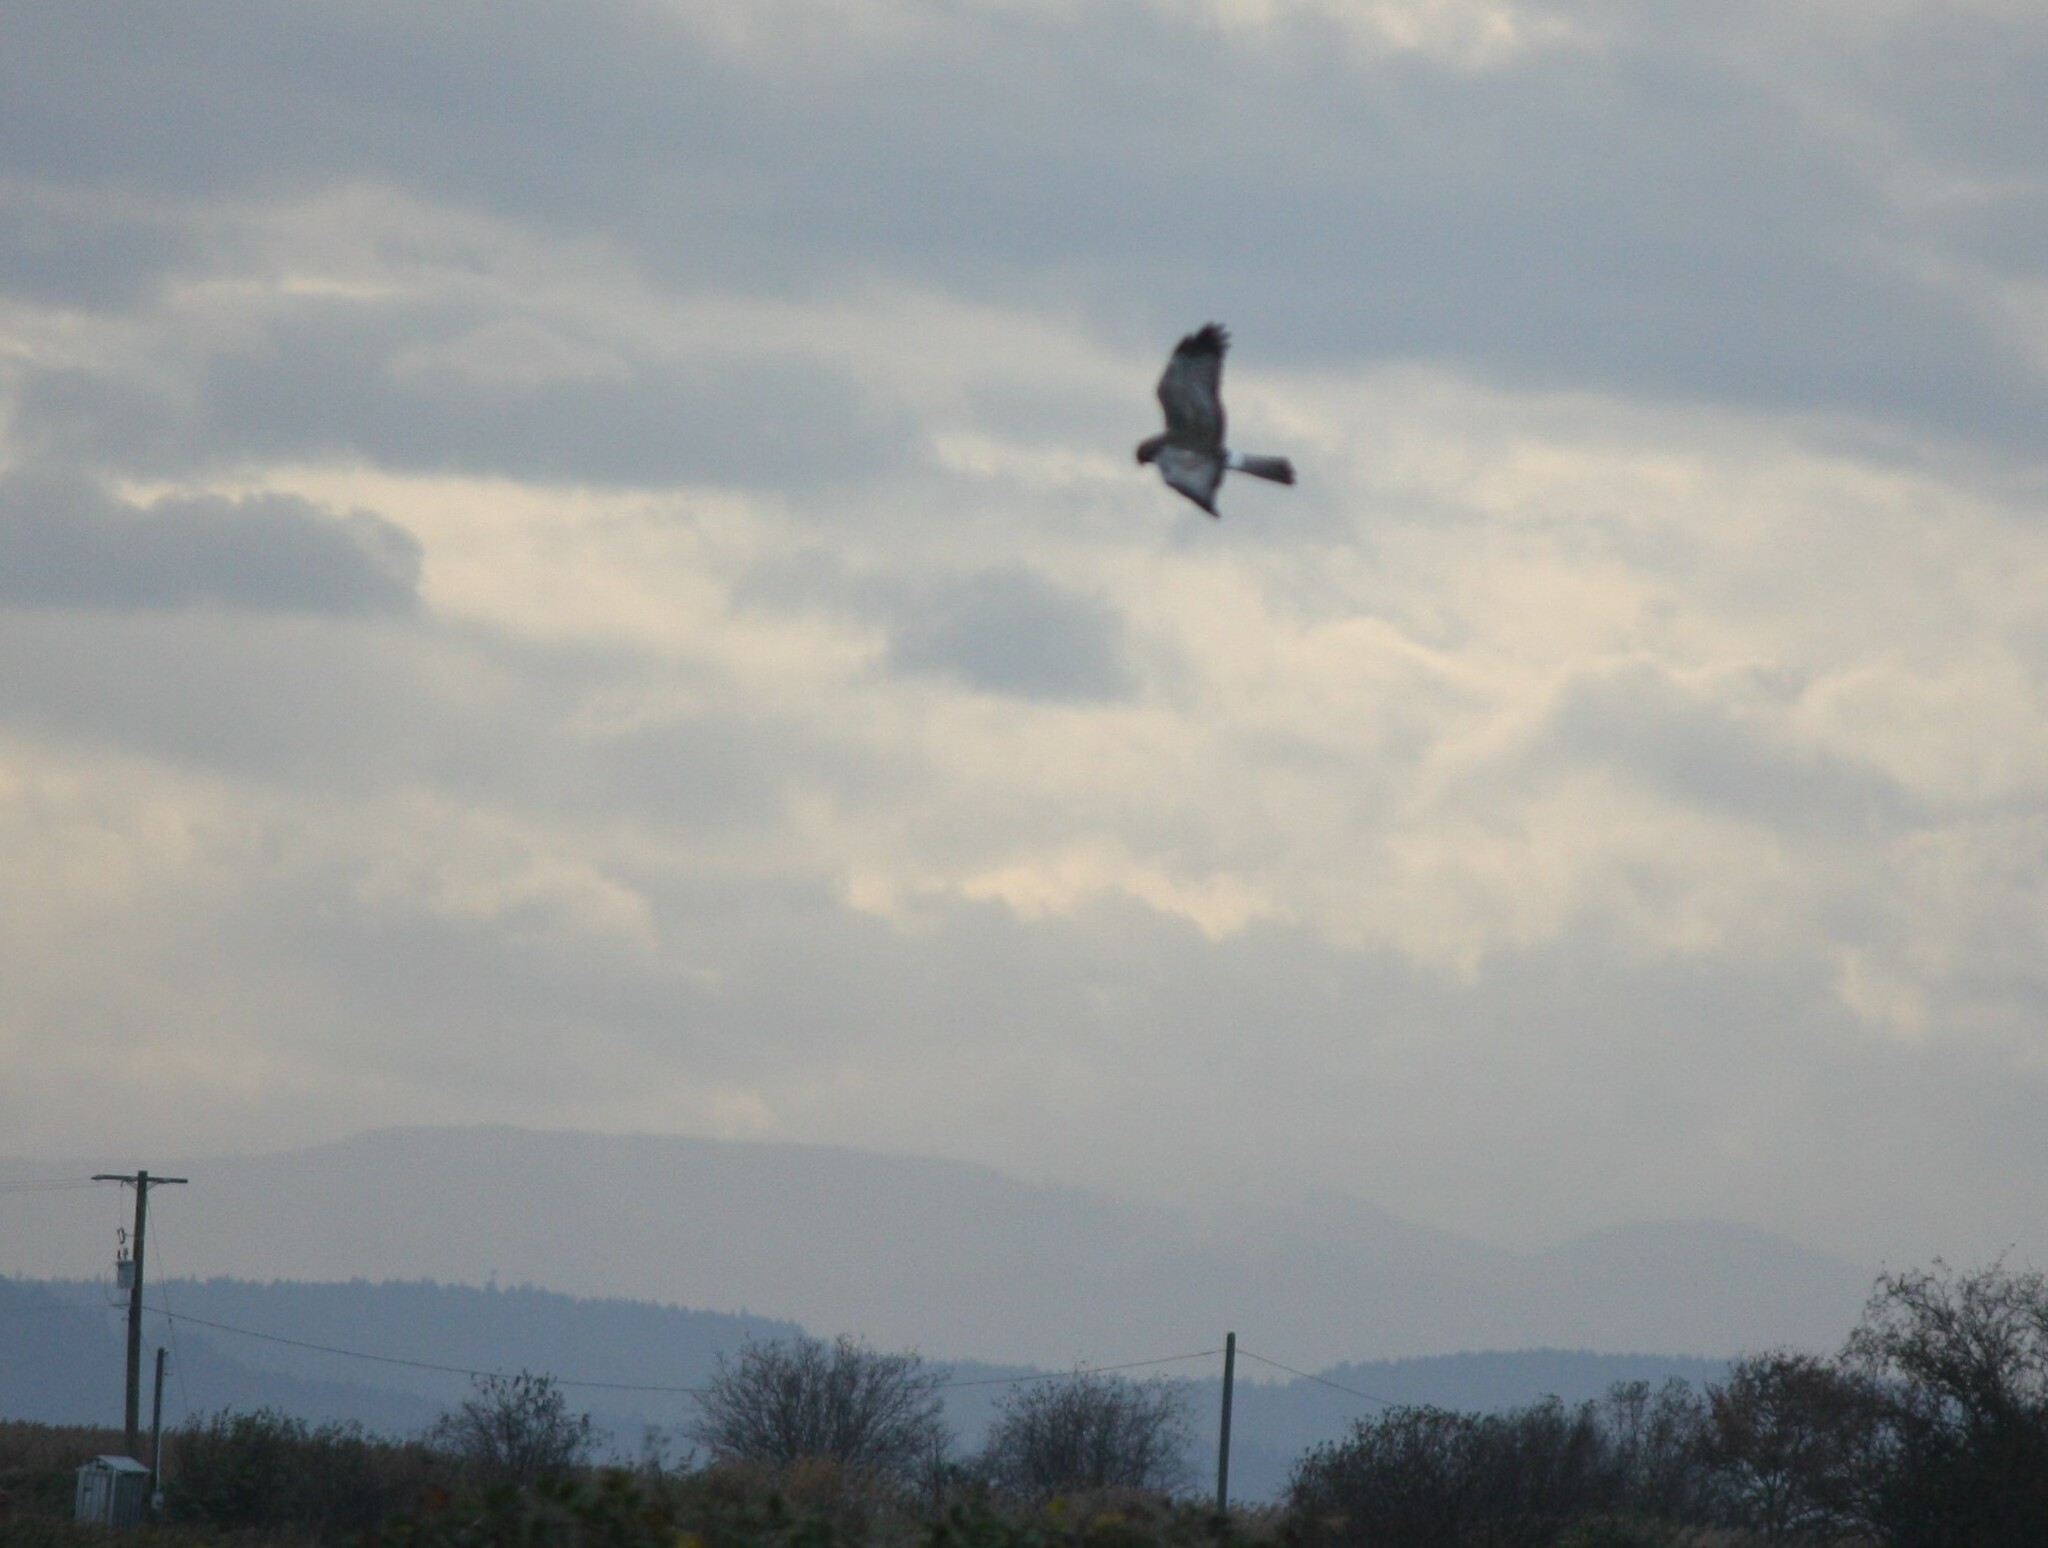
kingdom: Animalia
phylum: Chordata
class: Aves
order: Accipitriformes
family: Accipitridae
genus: Circus
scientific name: Circus cyaneus
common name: Hen harrier
